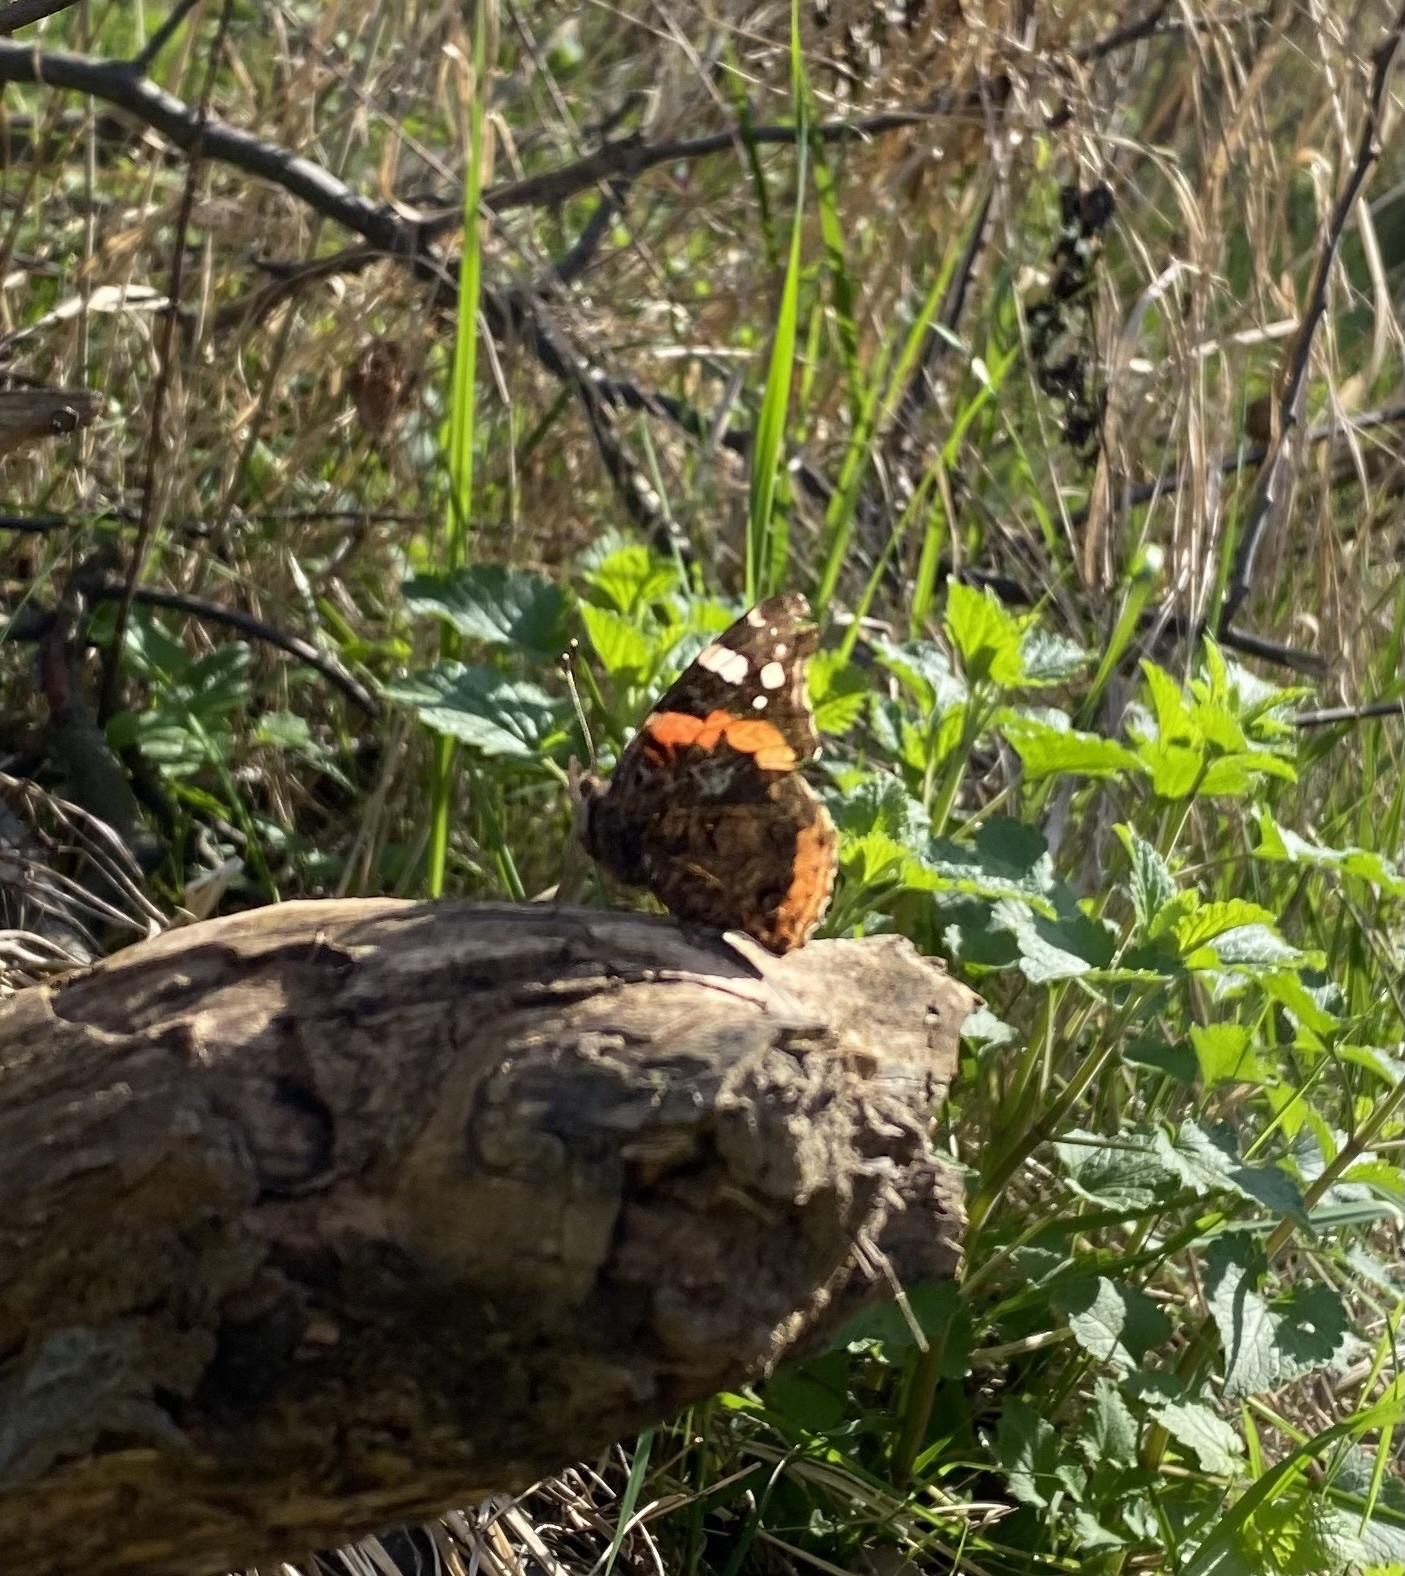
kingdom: Animalia
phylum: Arthropoda
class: Insecta
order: Lepidoptera
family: Nymphalidae
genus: Vanessa
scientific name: Vanessa atalanta
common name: Red admiral
